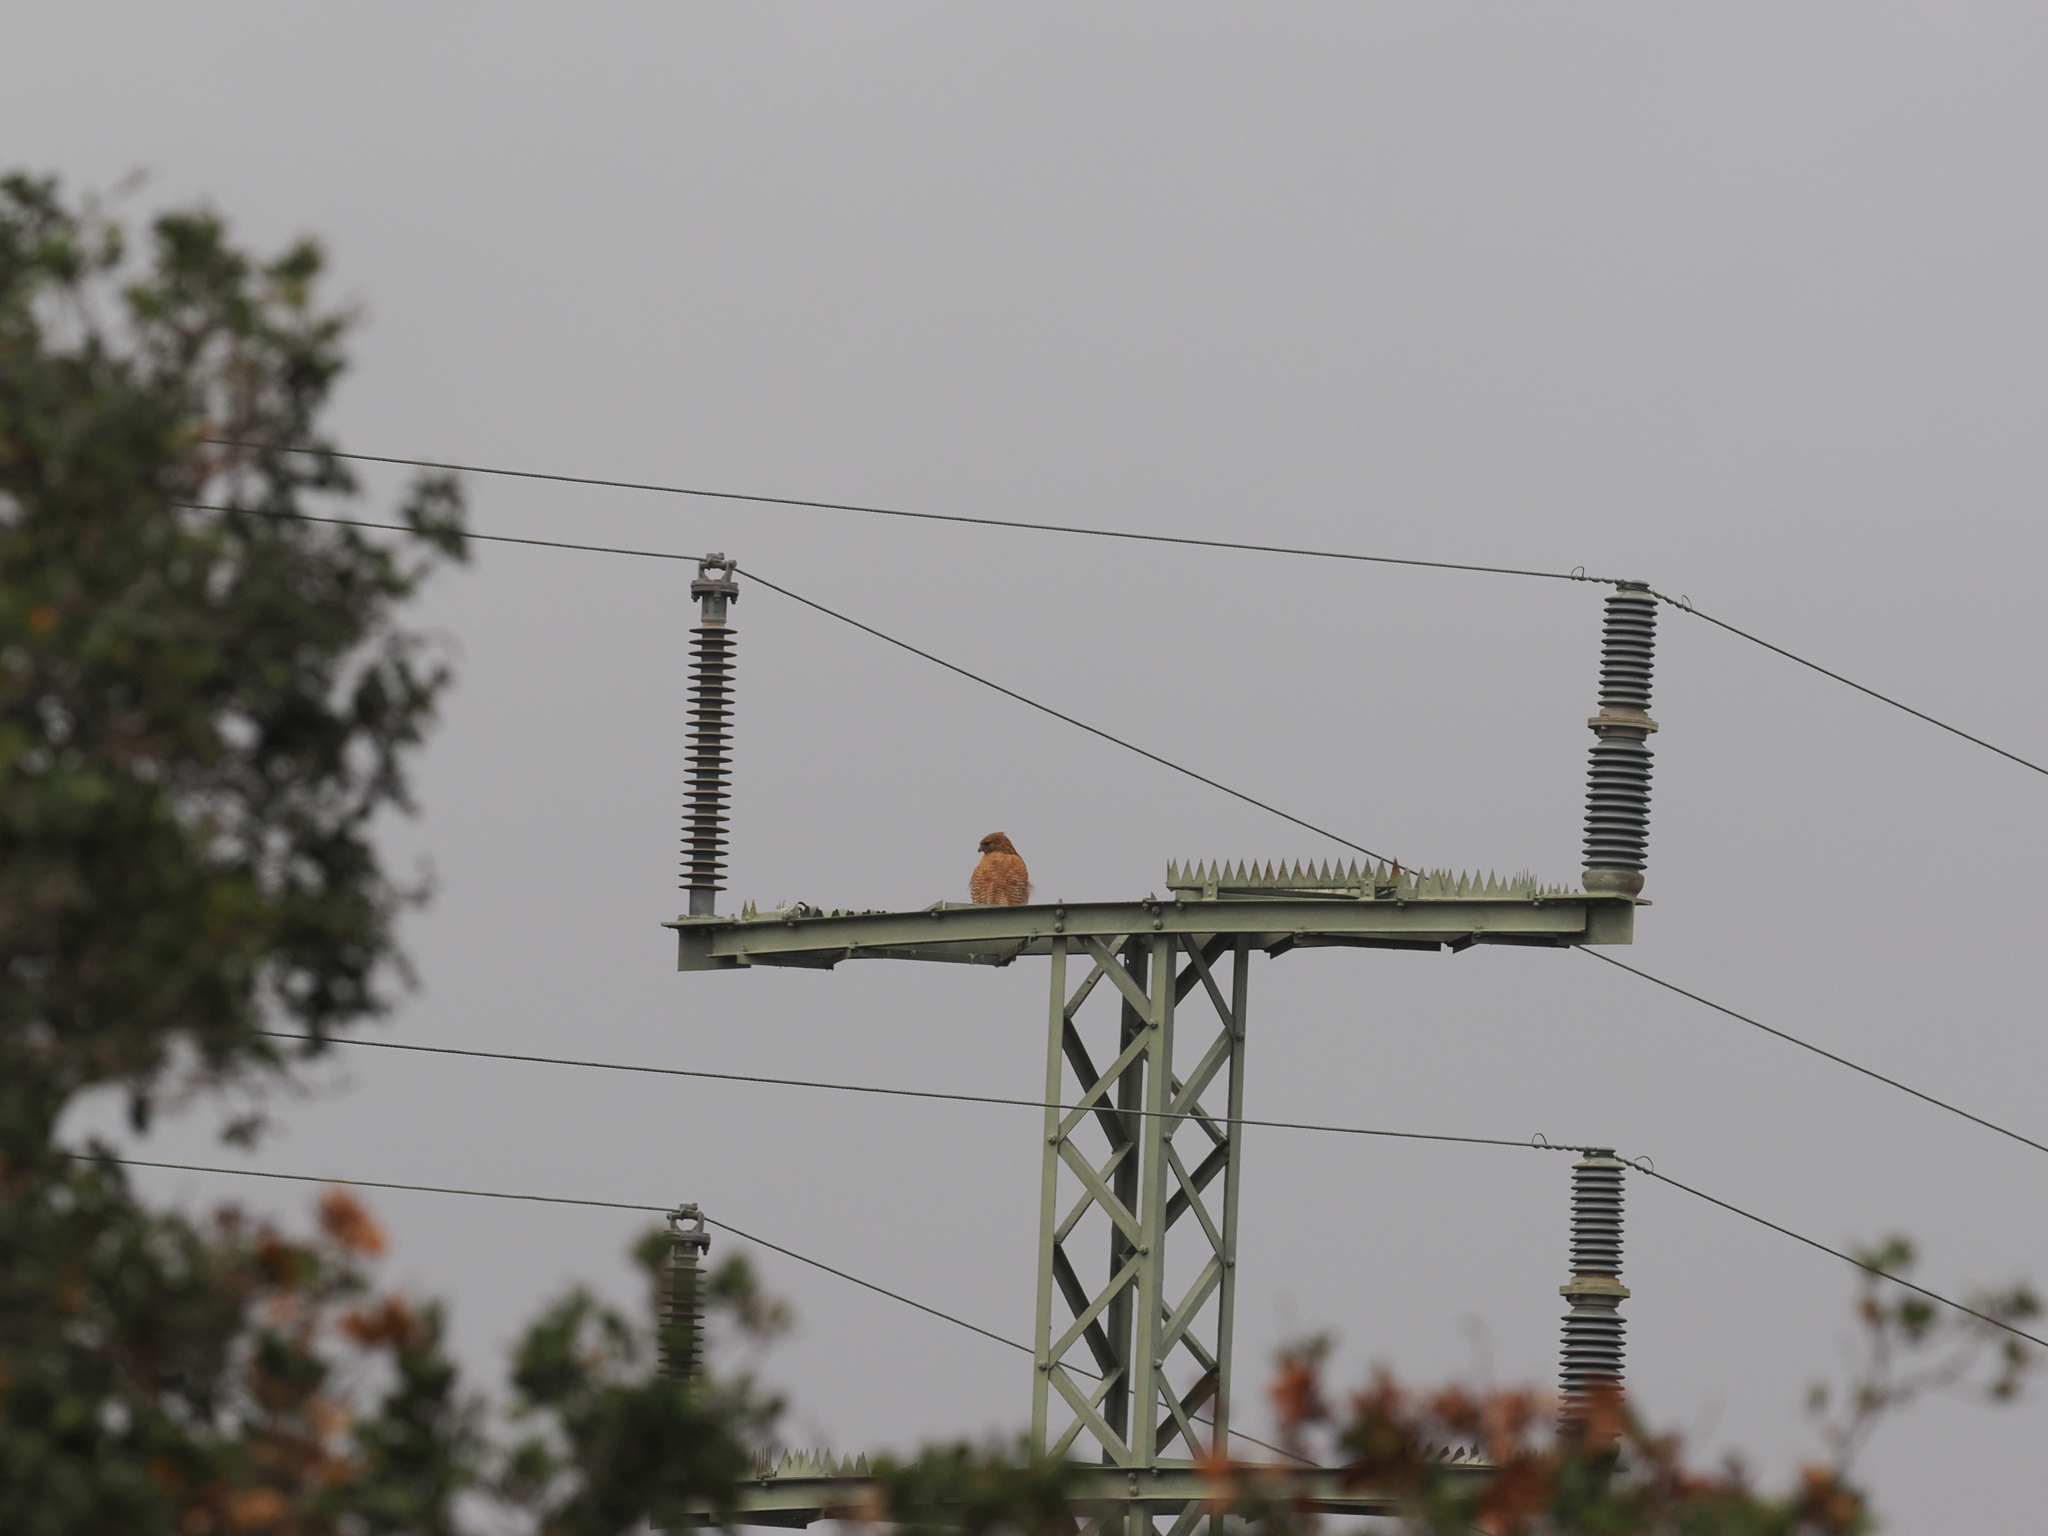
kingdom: Animalia
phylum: Chordata
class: Aves
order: Accipitriformes
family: Accipitridae
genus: Buteo
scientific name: Buteo lineatus
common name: Red-shouldered hawk
